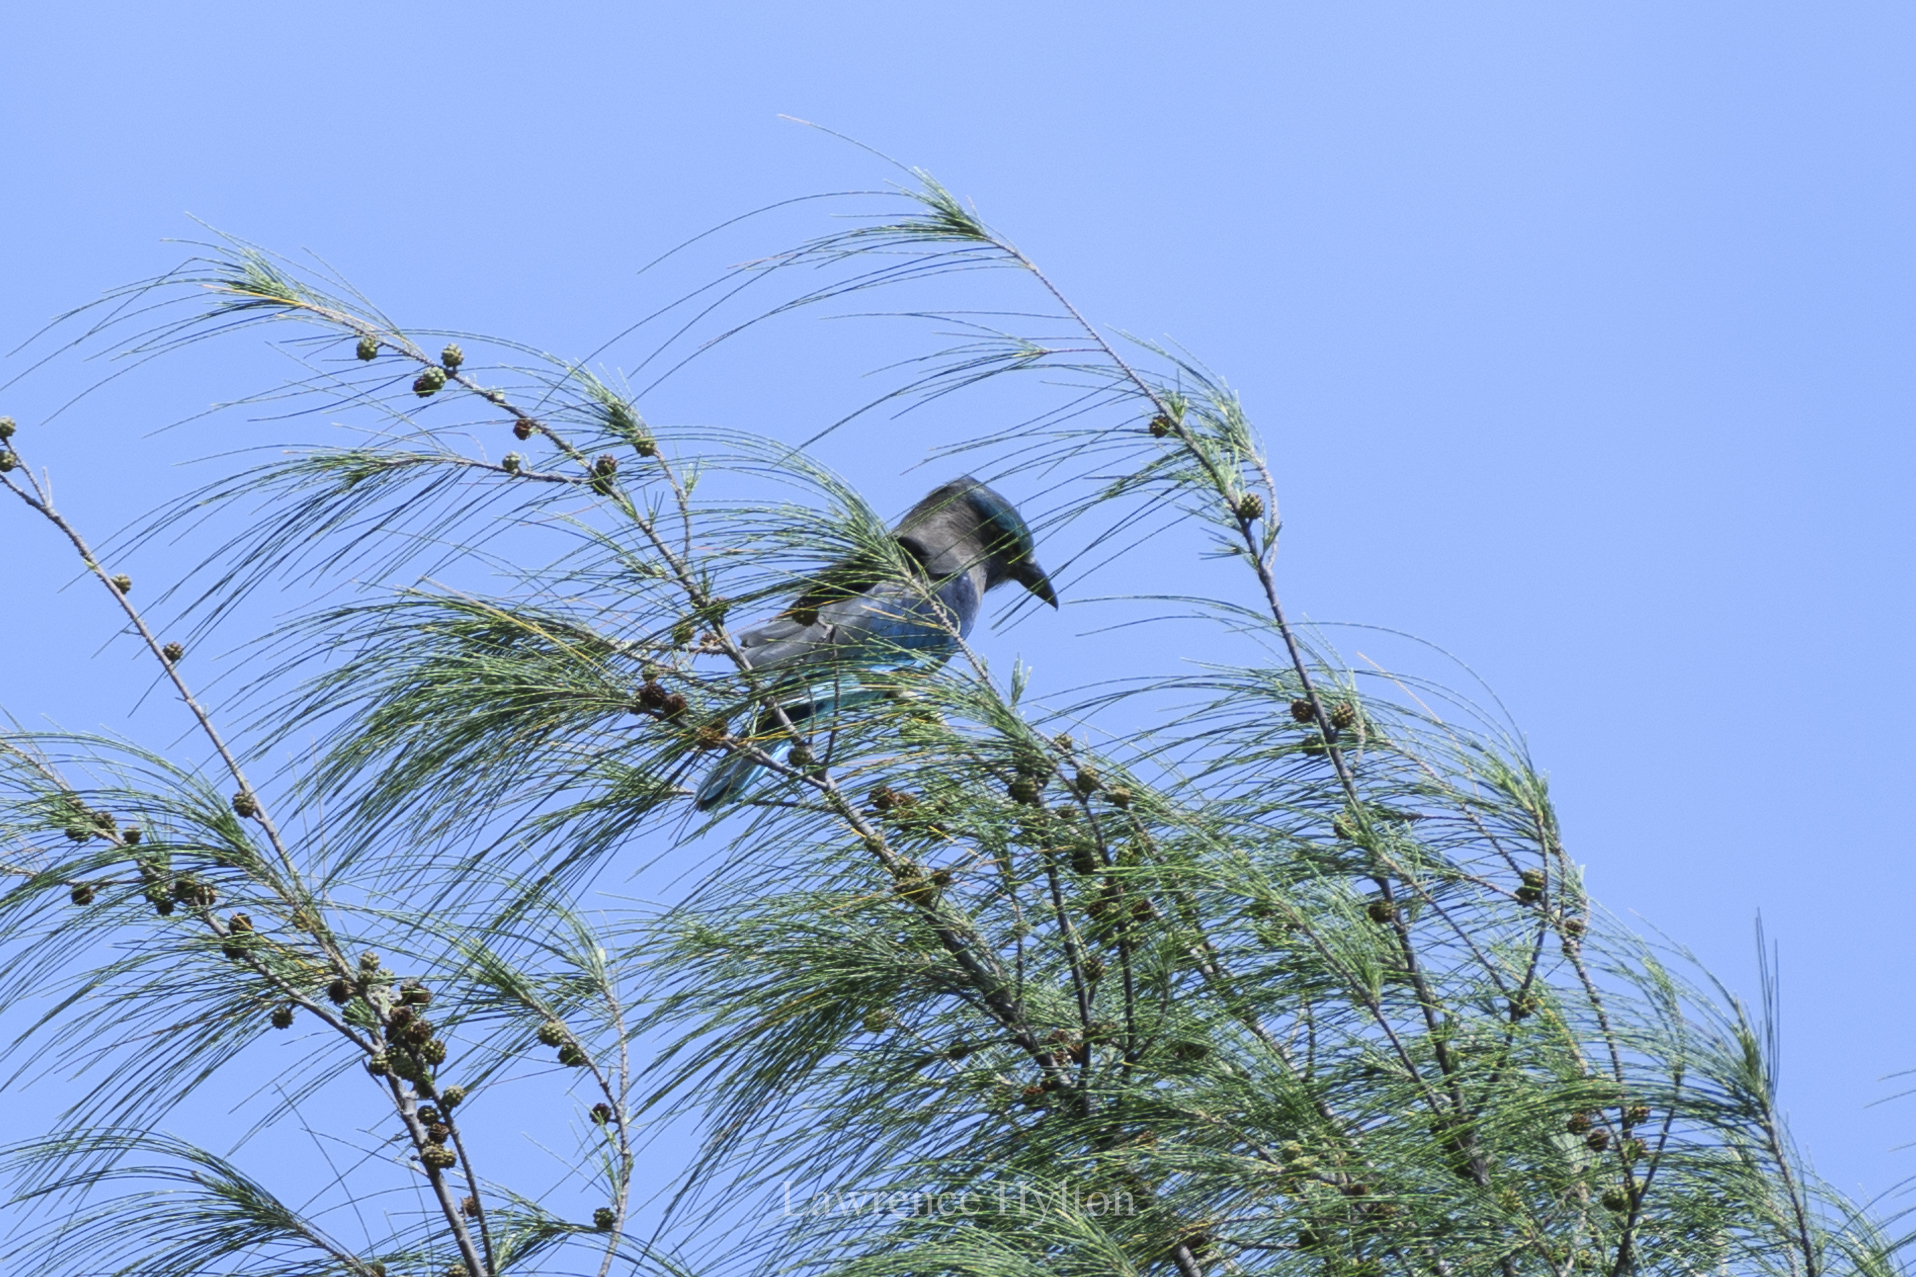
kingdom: Animalia
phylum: Chordata
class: Aves
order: Coraciiformes
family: Coraciidae
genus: Coracias
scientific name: Coracias affinis
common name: Indochinese roller
